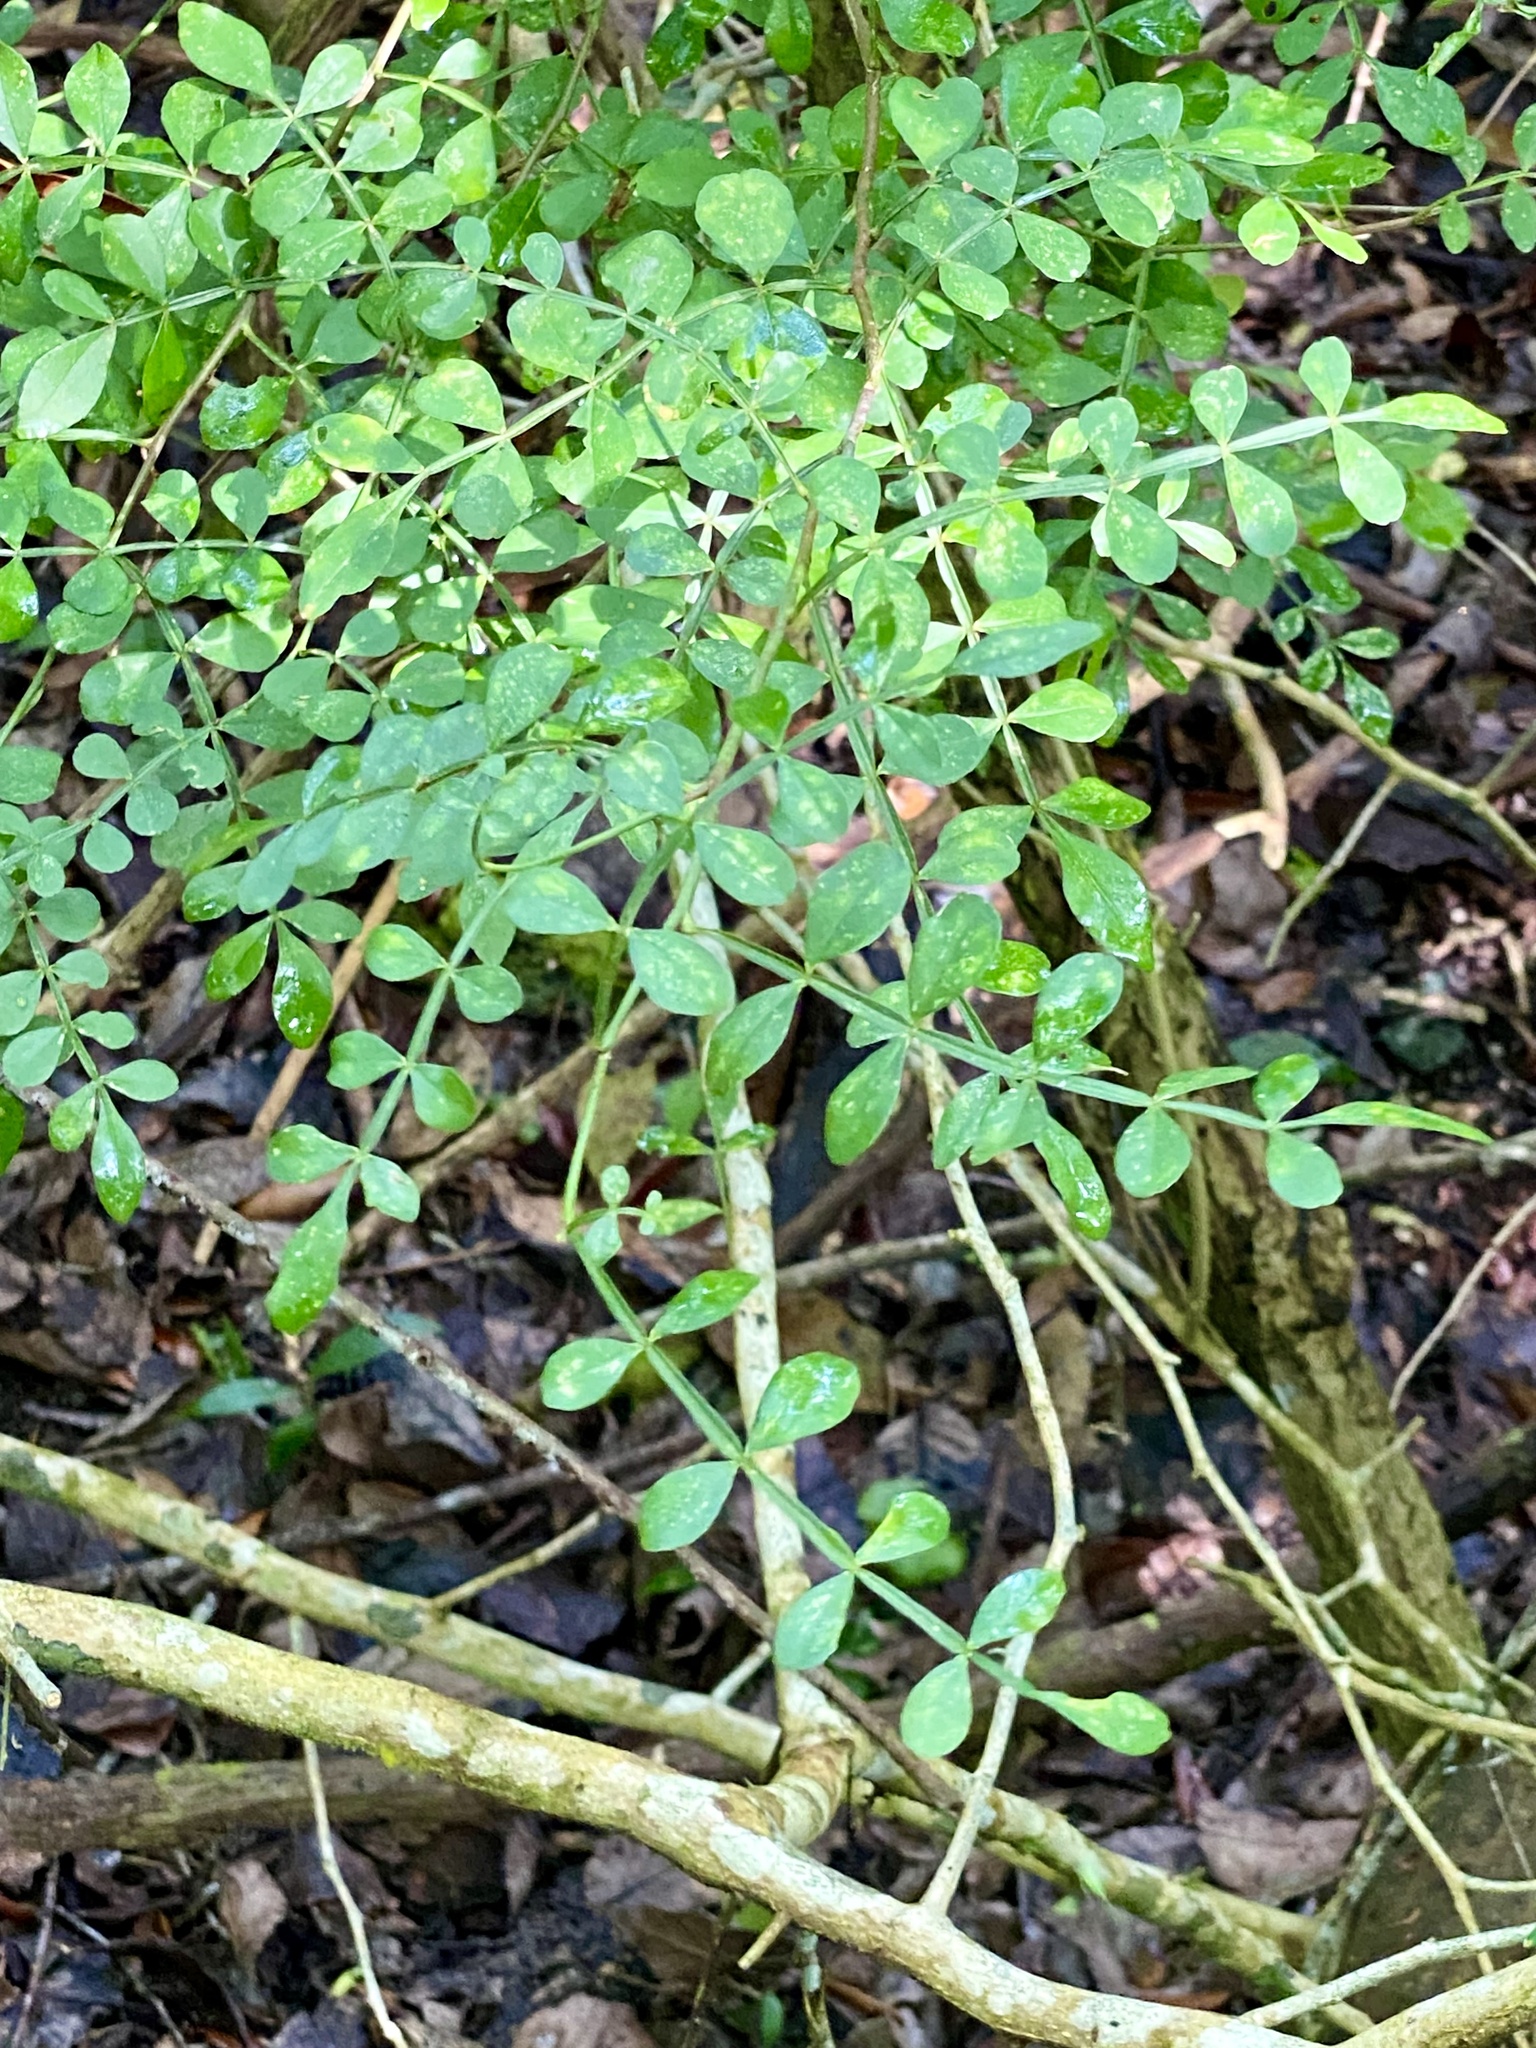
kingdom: Plantae
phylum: Tracheophyta
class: Magnoliopsida
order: Sapindales
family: Rutaceae
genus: Zanthoxylum
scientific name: Zanthoxylum fagara
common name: Lime prickly-ash
